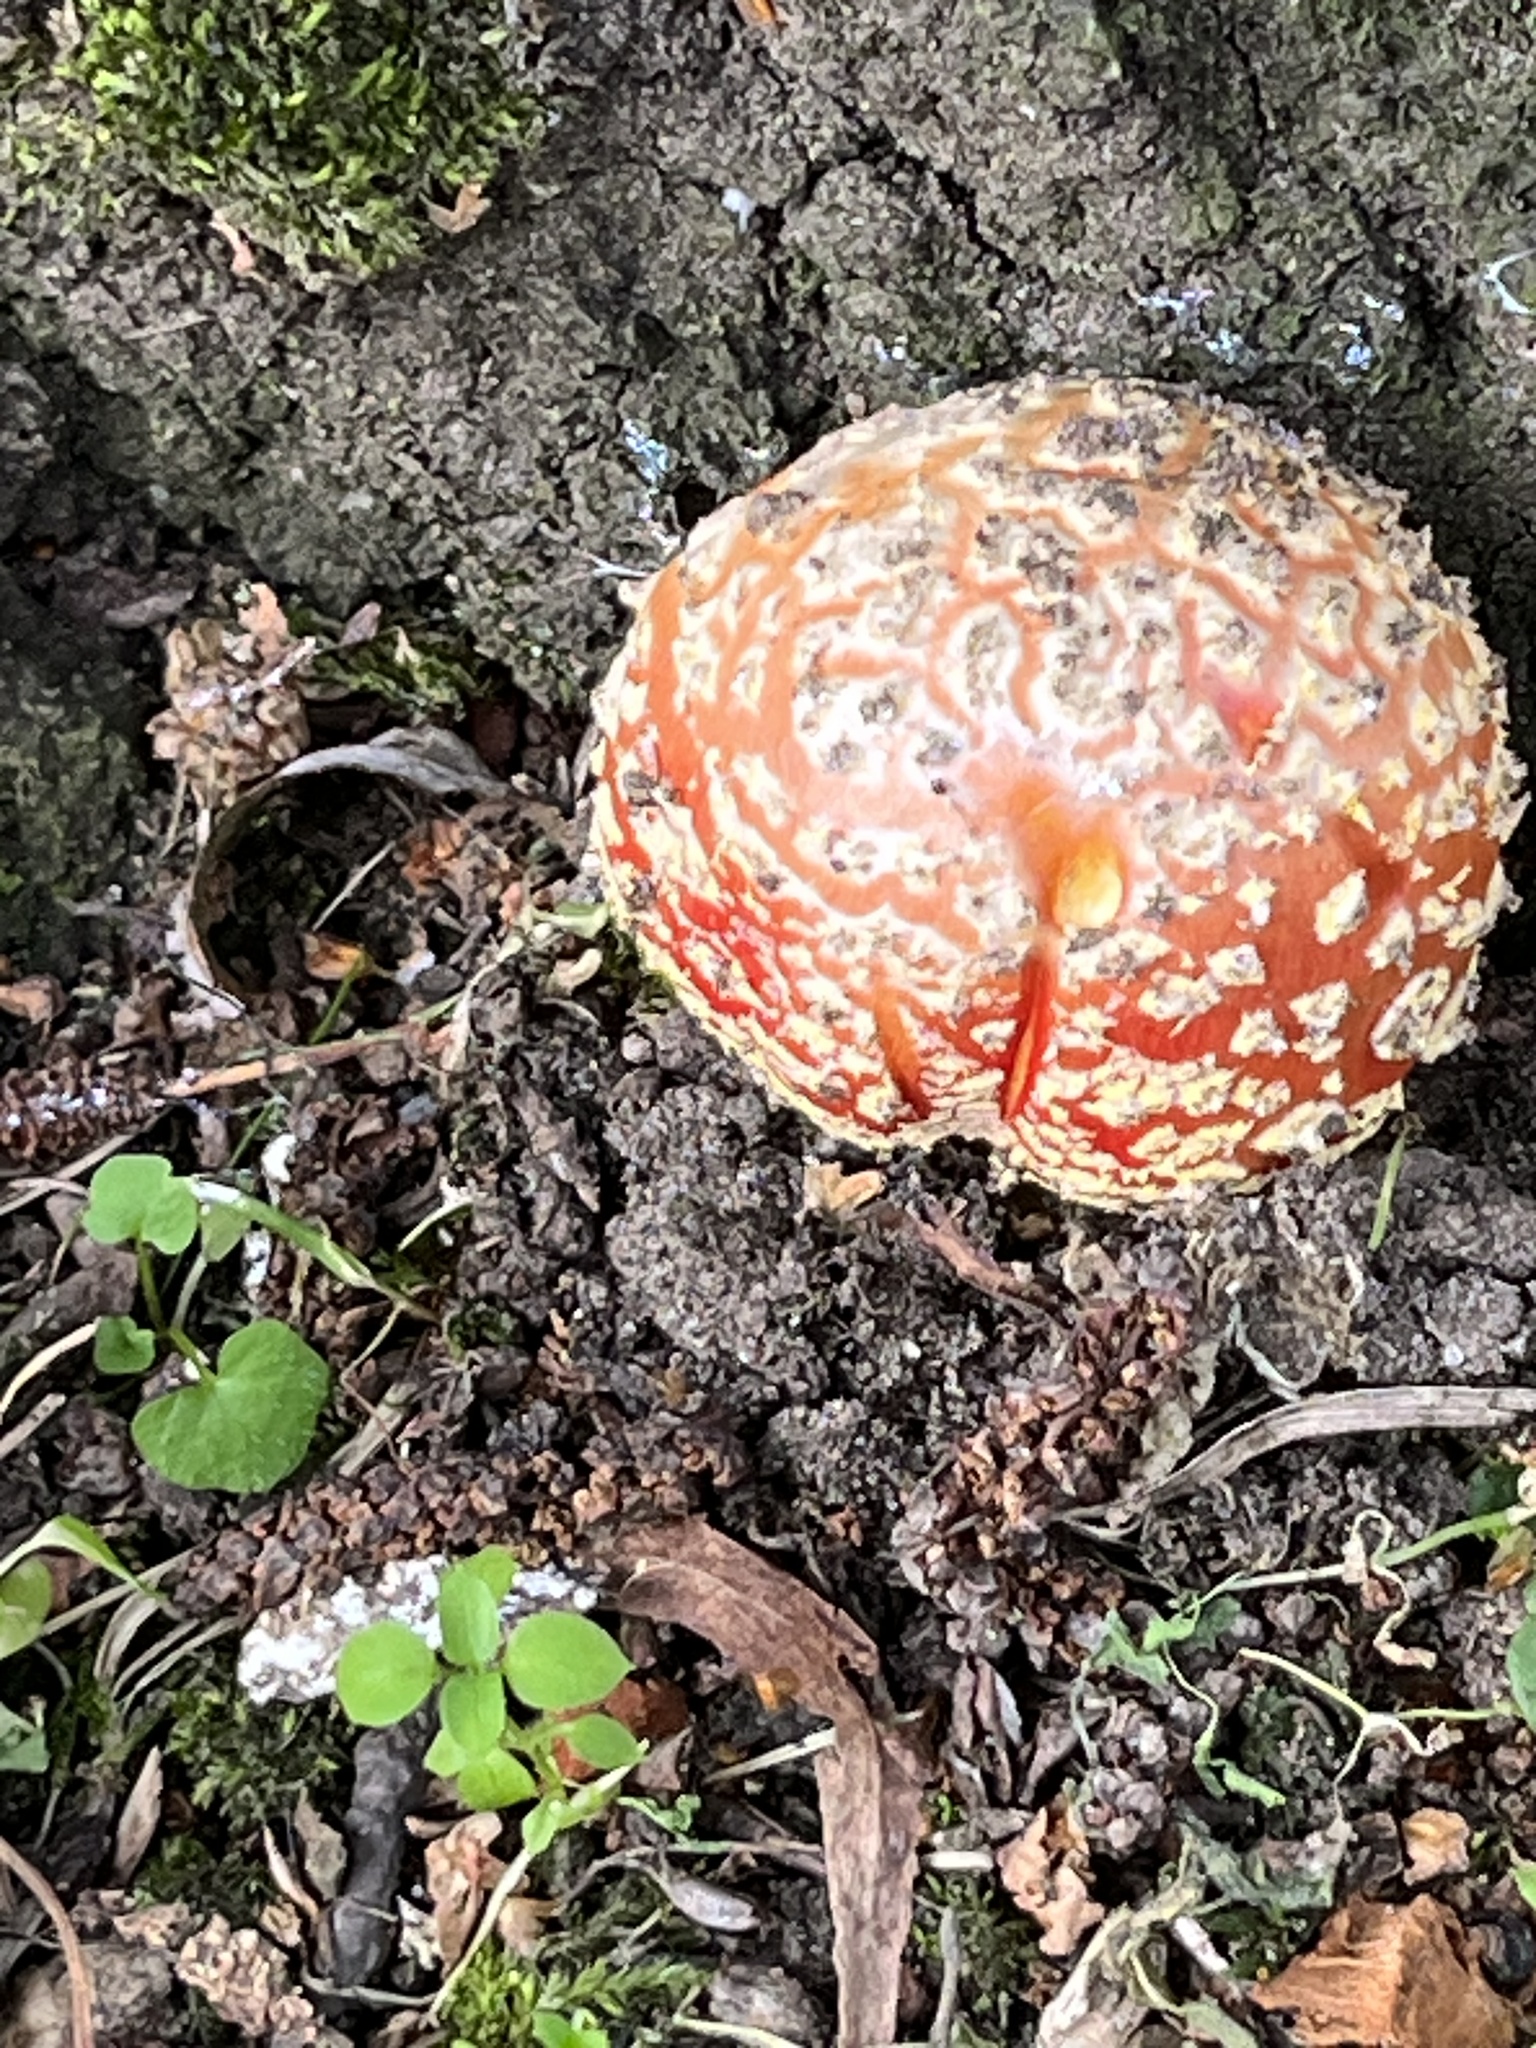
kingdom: Fungi
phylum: Basidiomycota
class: Agaricomycetes
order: Agaricales
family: Amanitaceae
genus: Amanita
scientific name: Amanita muscaria
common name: Fly agaric
